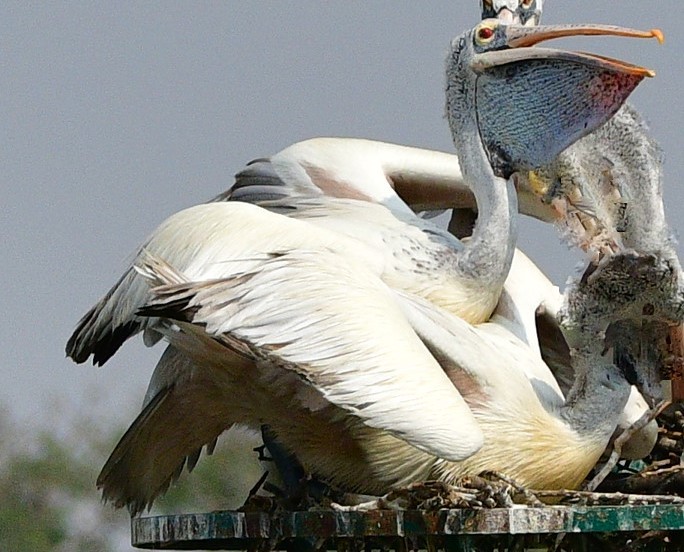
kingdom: Animalia
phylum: Chordata
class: Aves
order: Pelecaniformes
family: Pelecanidae
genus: Pelecanus
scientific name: Pelecanus philippensis
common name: Spot-billed pelican
